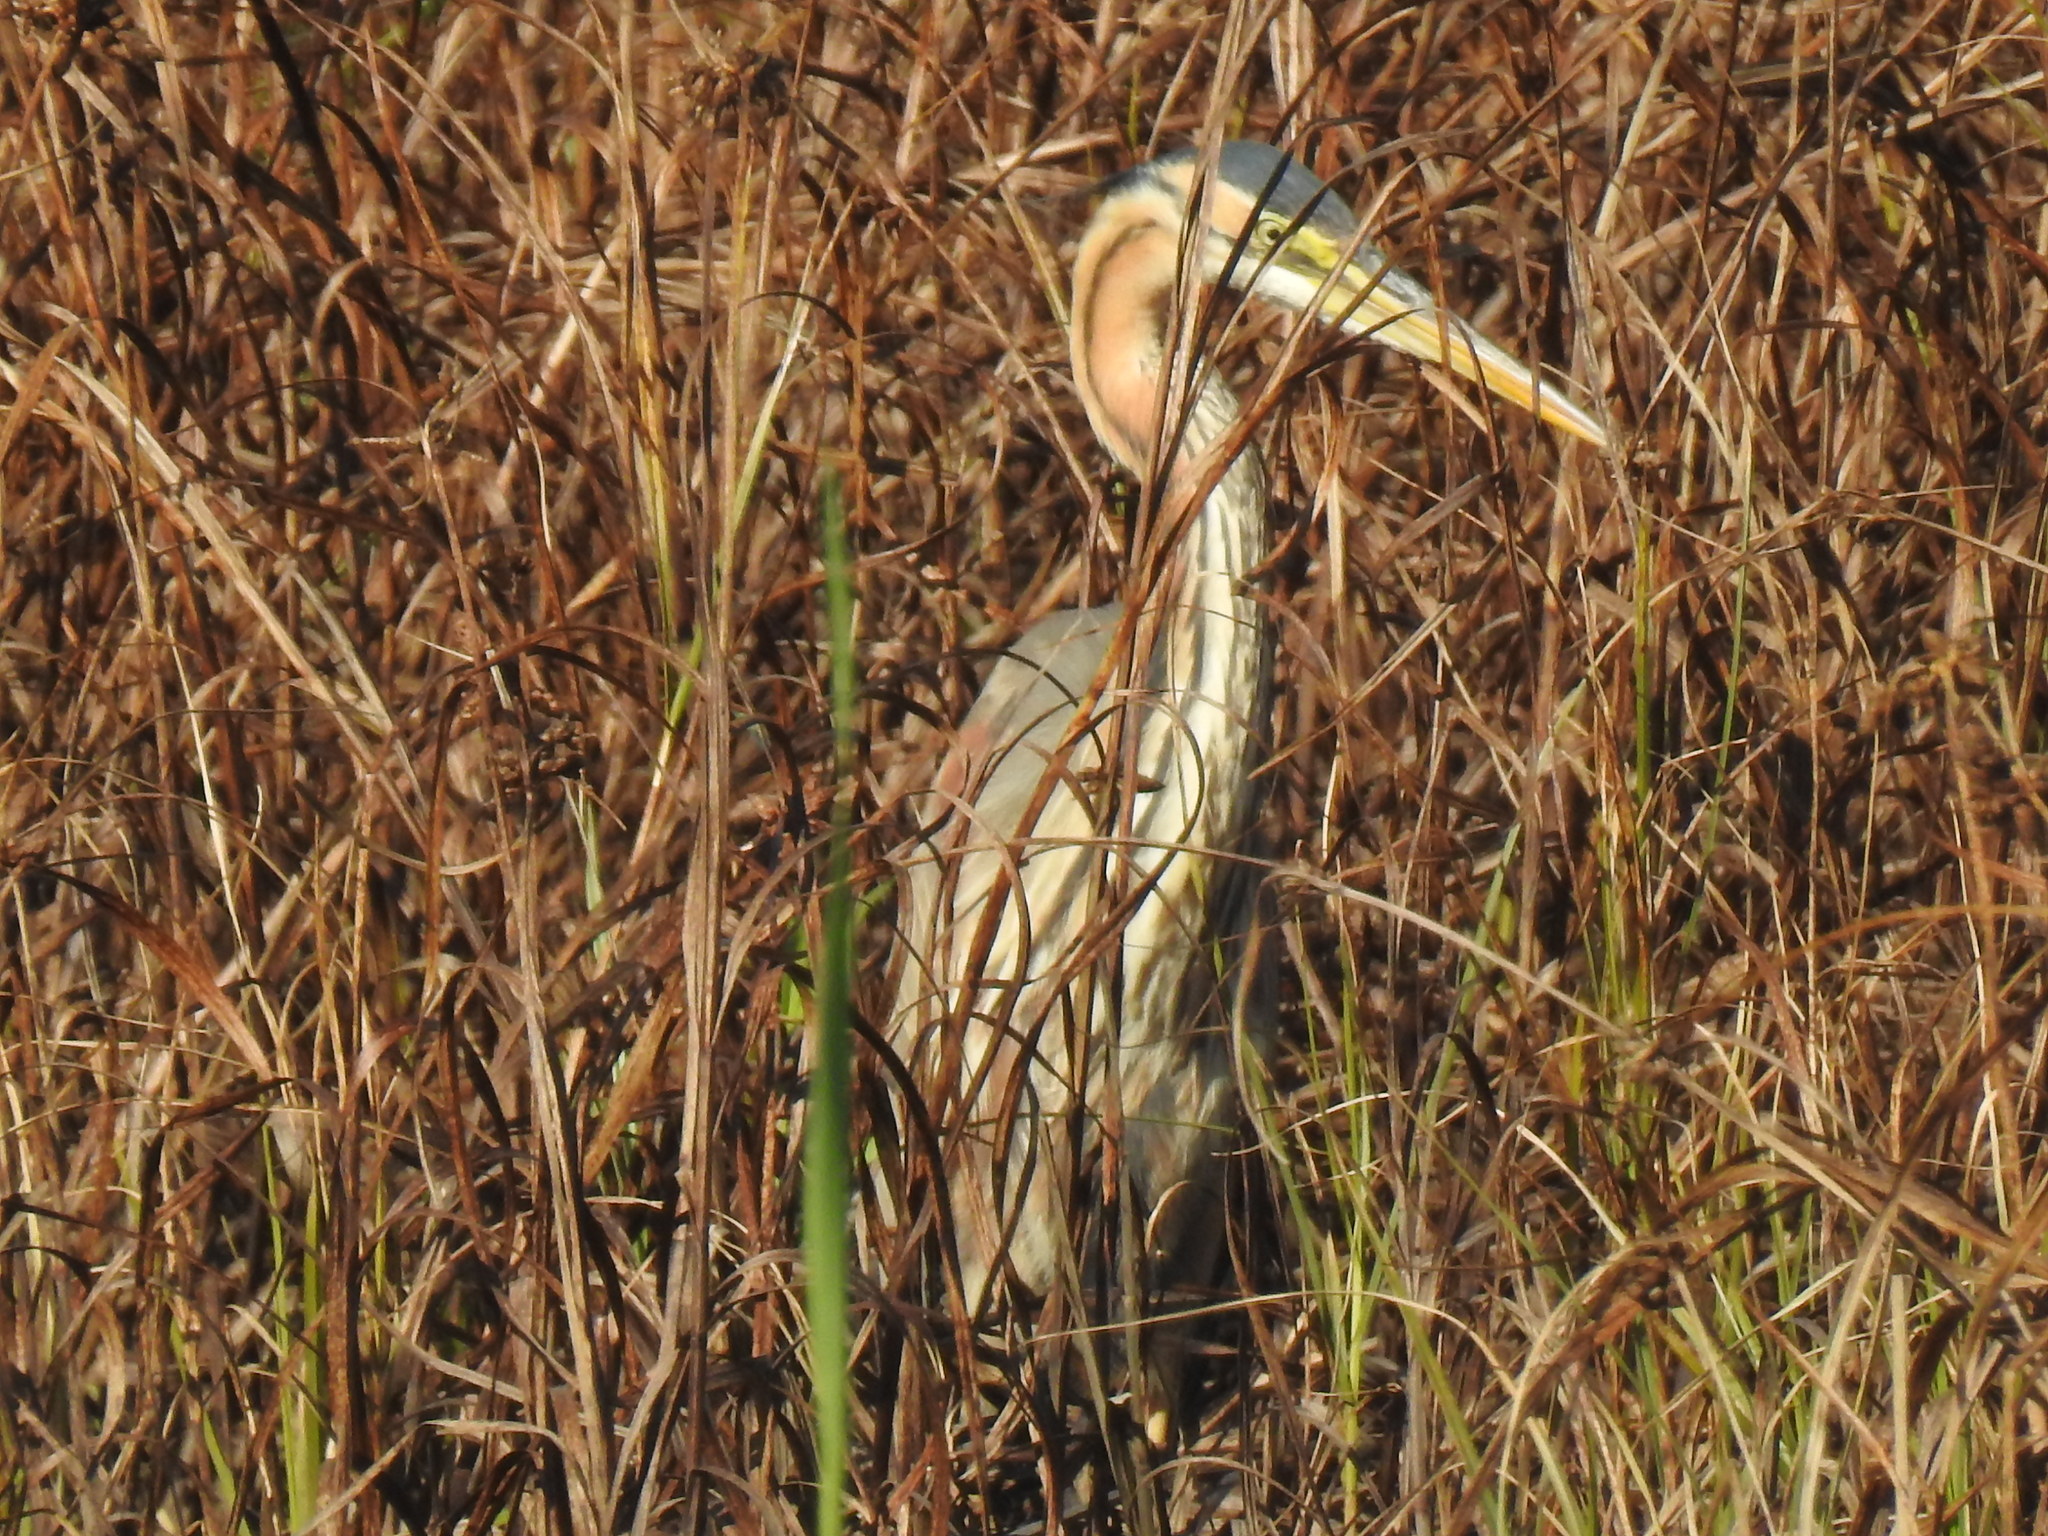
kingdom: Animalia
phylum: Chordata
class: Aves
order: Pelecaniformes
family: Ardeidae
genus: Ardea
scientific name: Ardea purpurea
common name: Purple heron
